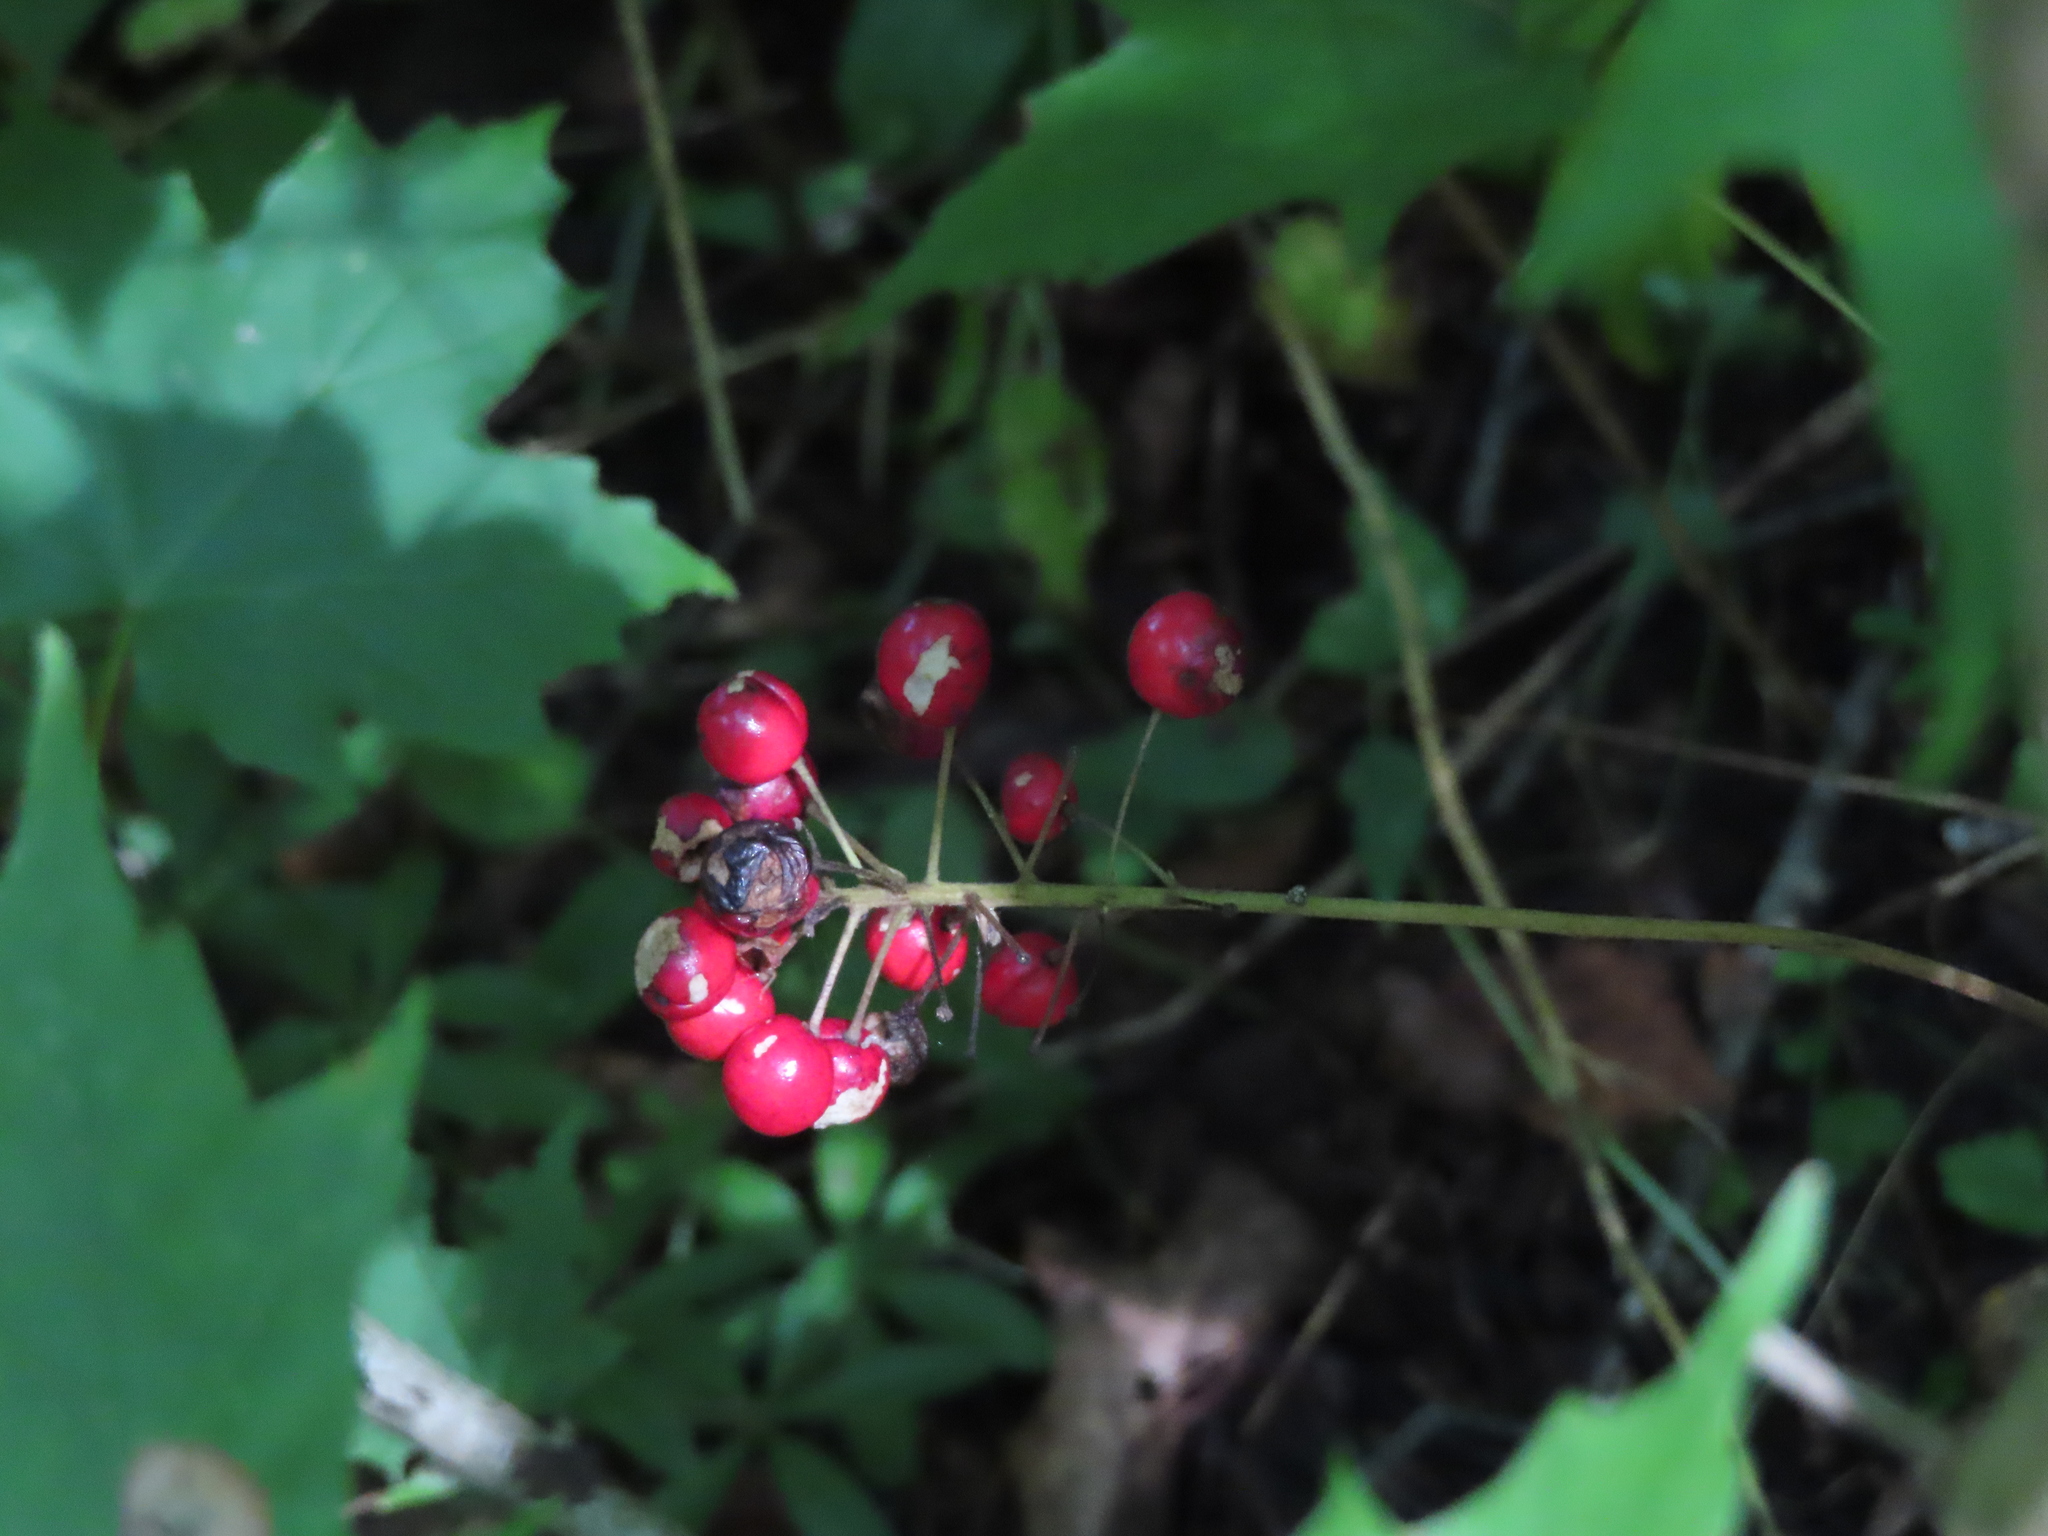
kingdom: Plantae
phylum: Tracheophyta
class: Magnoliopsida
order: Ranunculales
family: Ranunculaceae
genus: Actaea
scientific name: Actaea rubra
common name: Red baneberry
